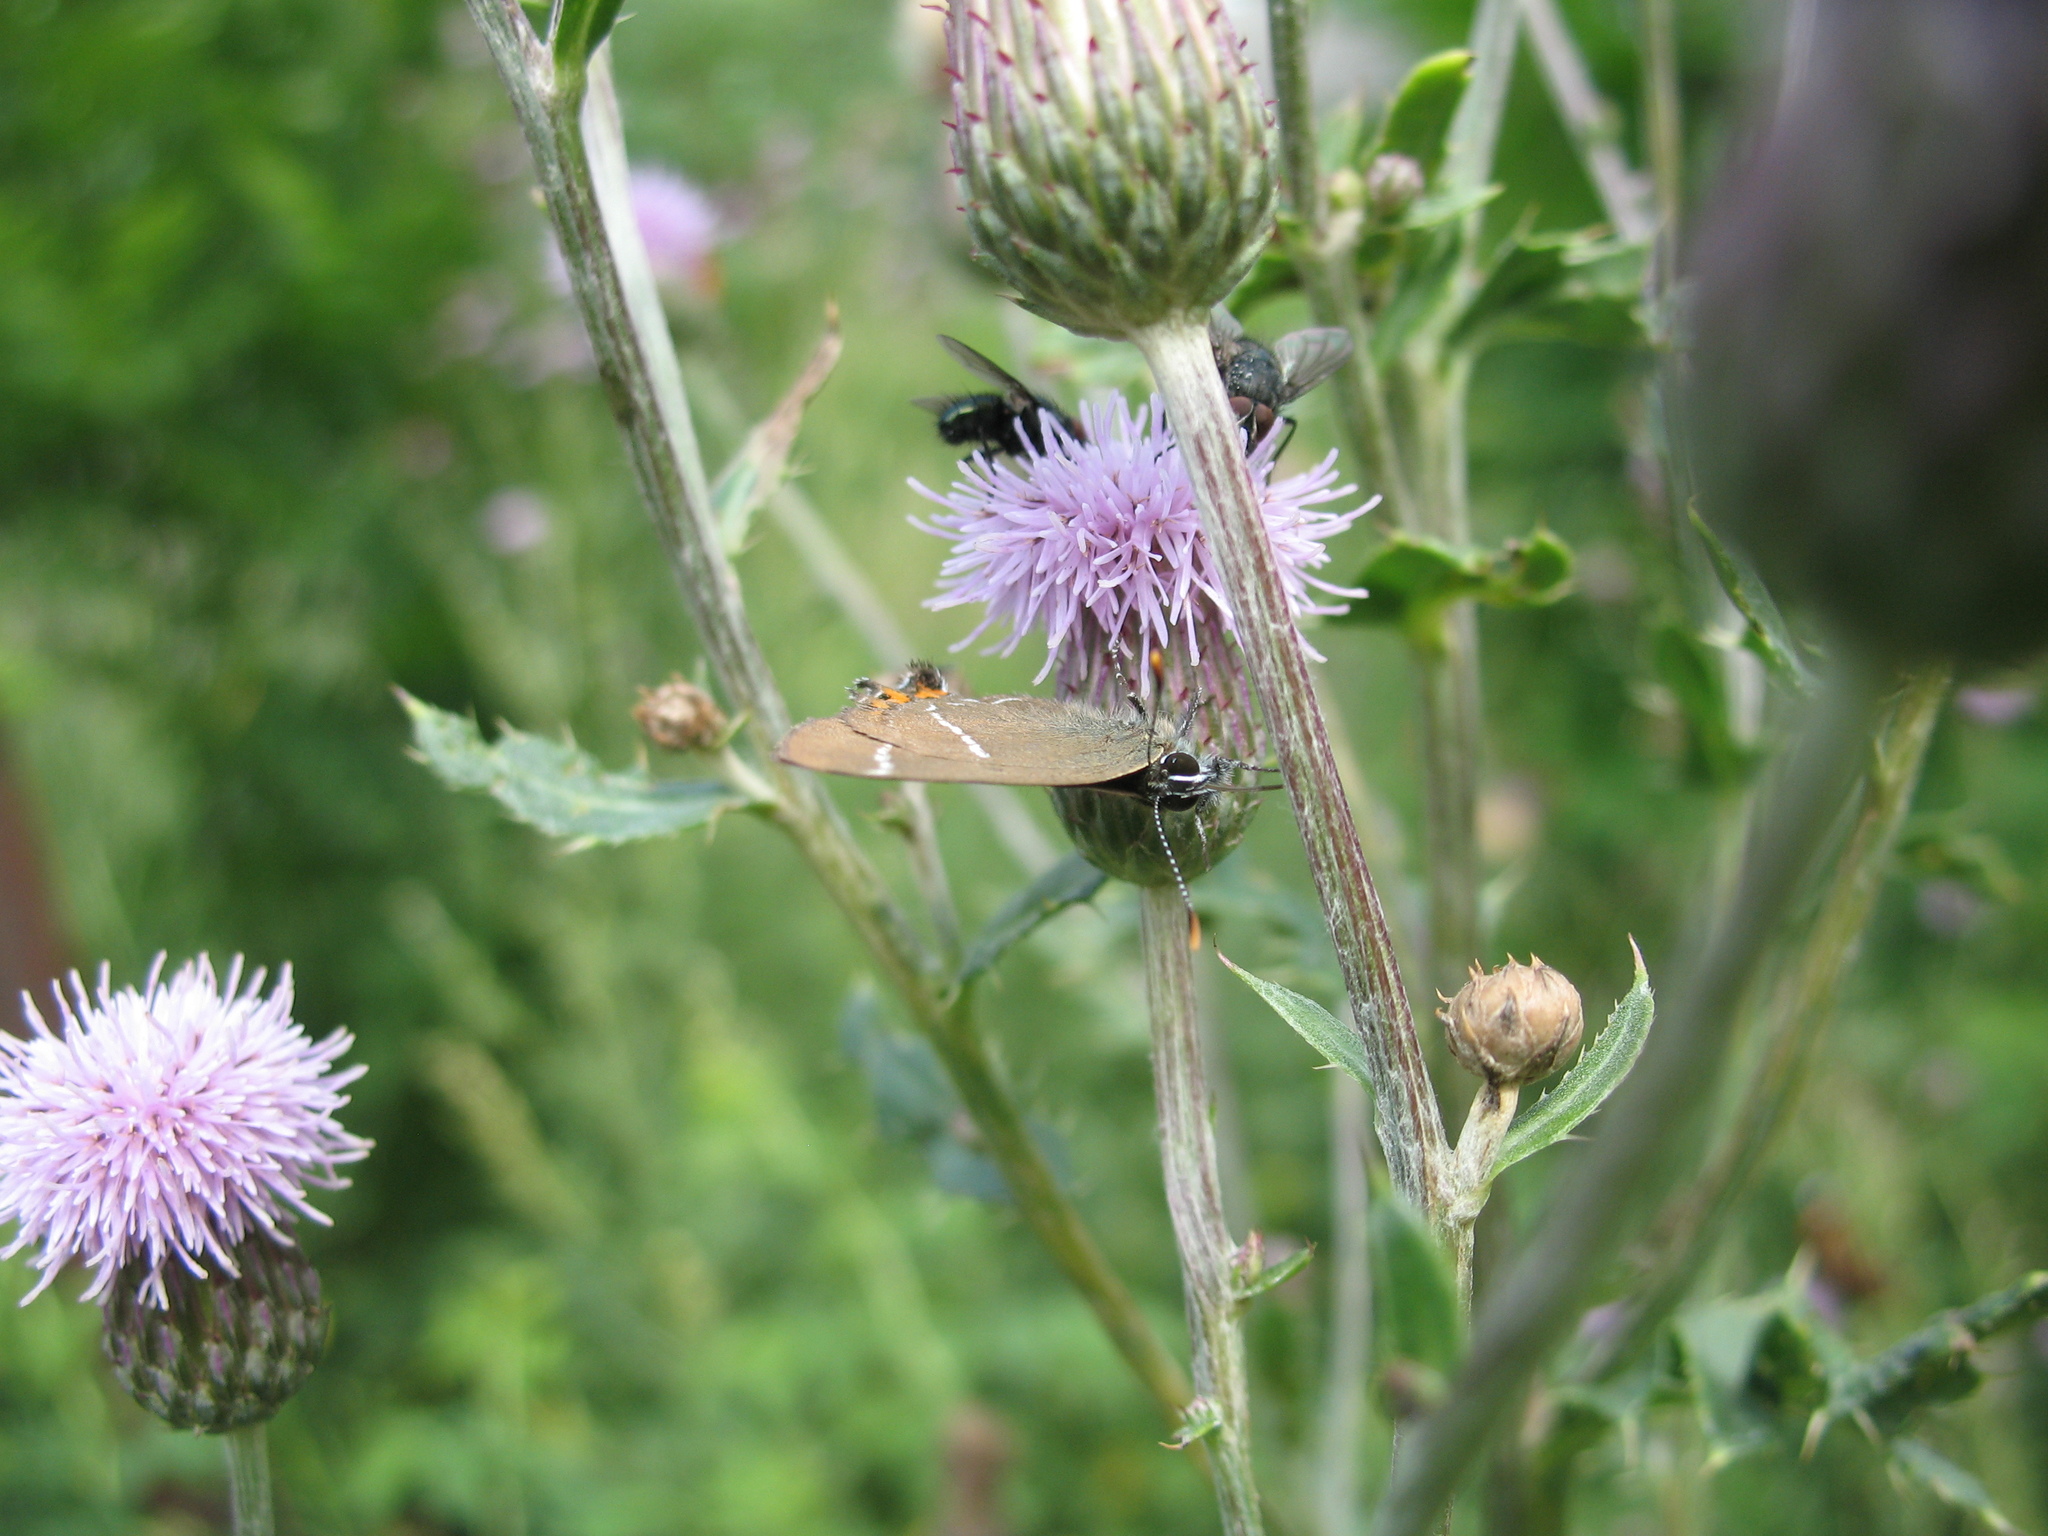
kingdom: Animalia
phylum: Arthropoda
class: Insecta
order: Lepidoptera
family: Lycaenidae
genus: Satyrium
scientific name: Satyrium w-album
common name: White-letter hairstreak
